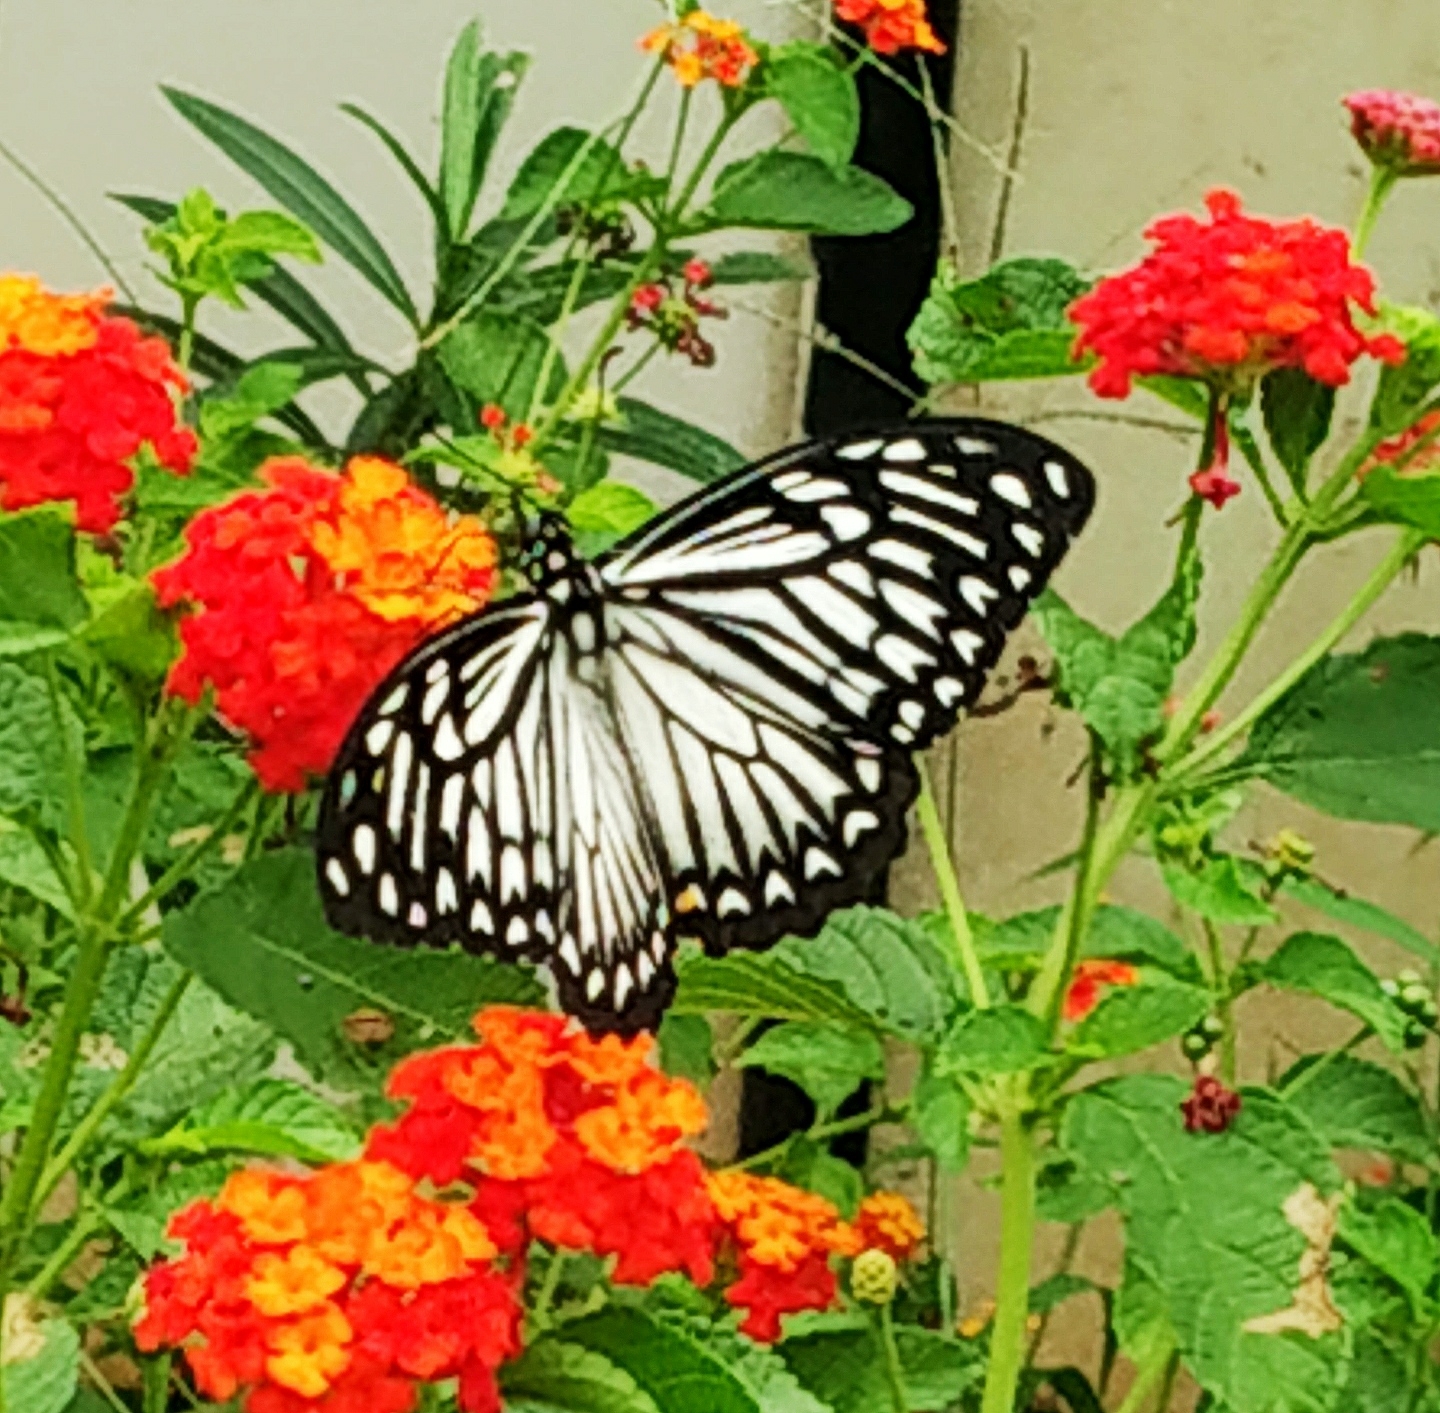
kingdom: Animalia
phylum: Arthropoda
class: Insecta
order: Lepidoptera
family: Papilionidae
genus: Chilasa
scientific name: Chilasa clytia
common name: Common mime
